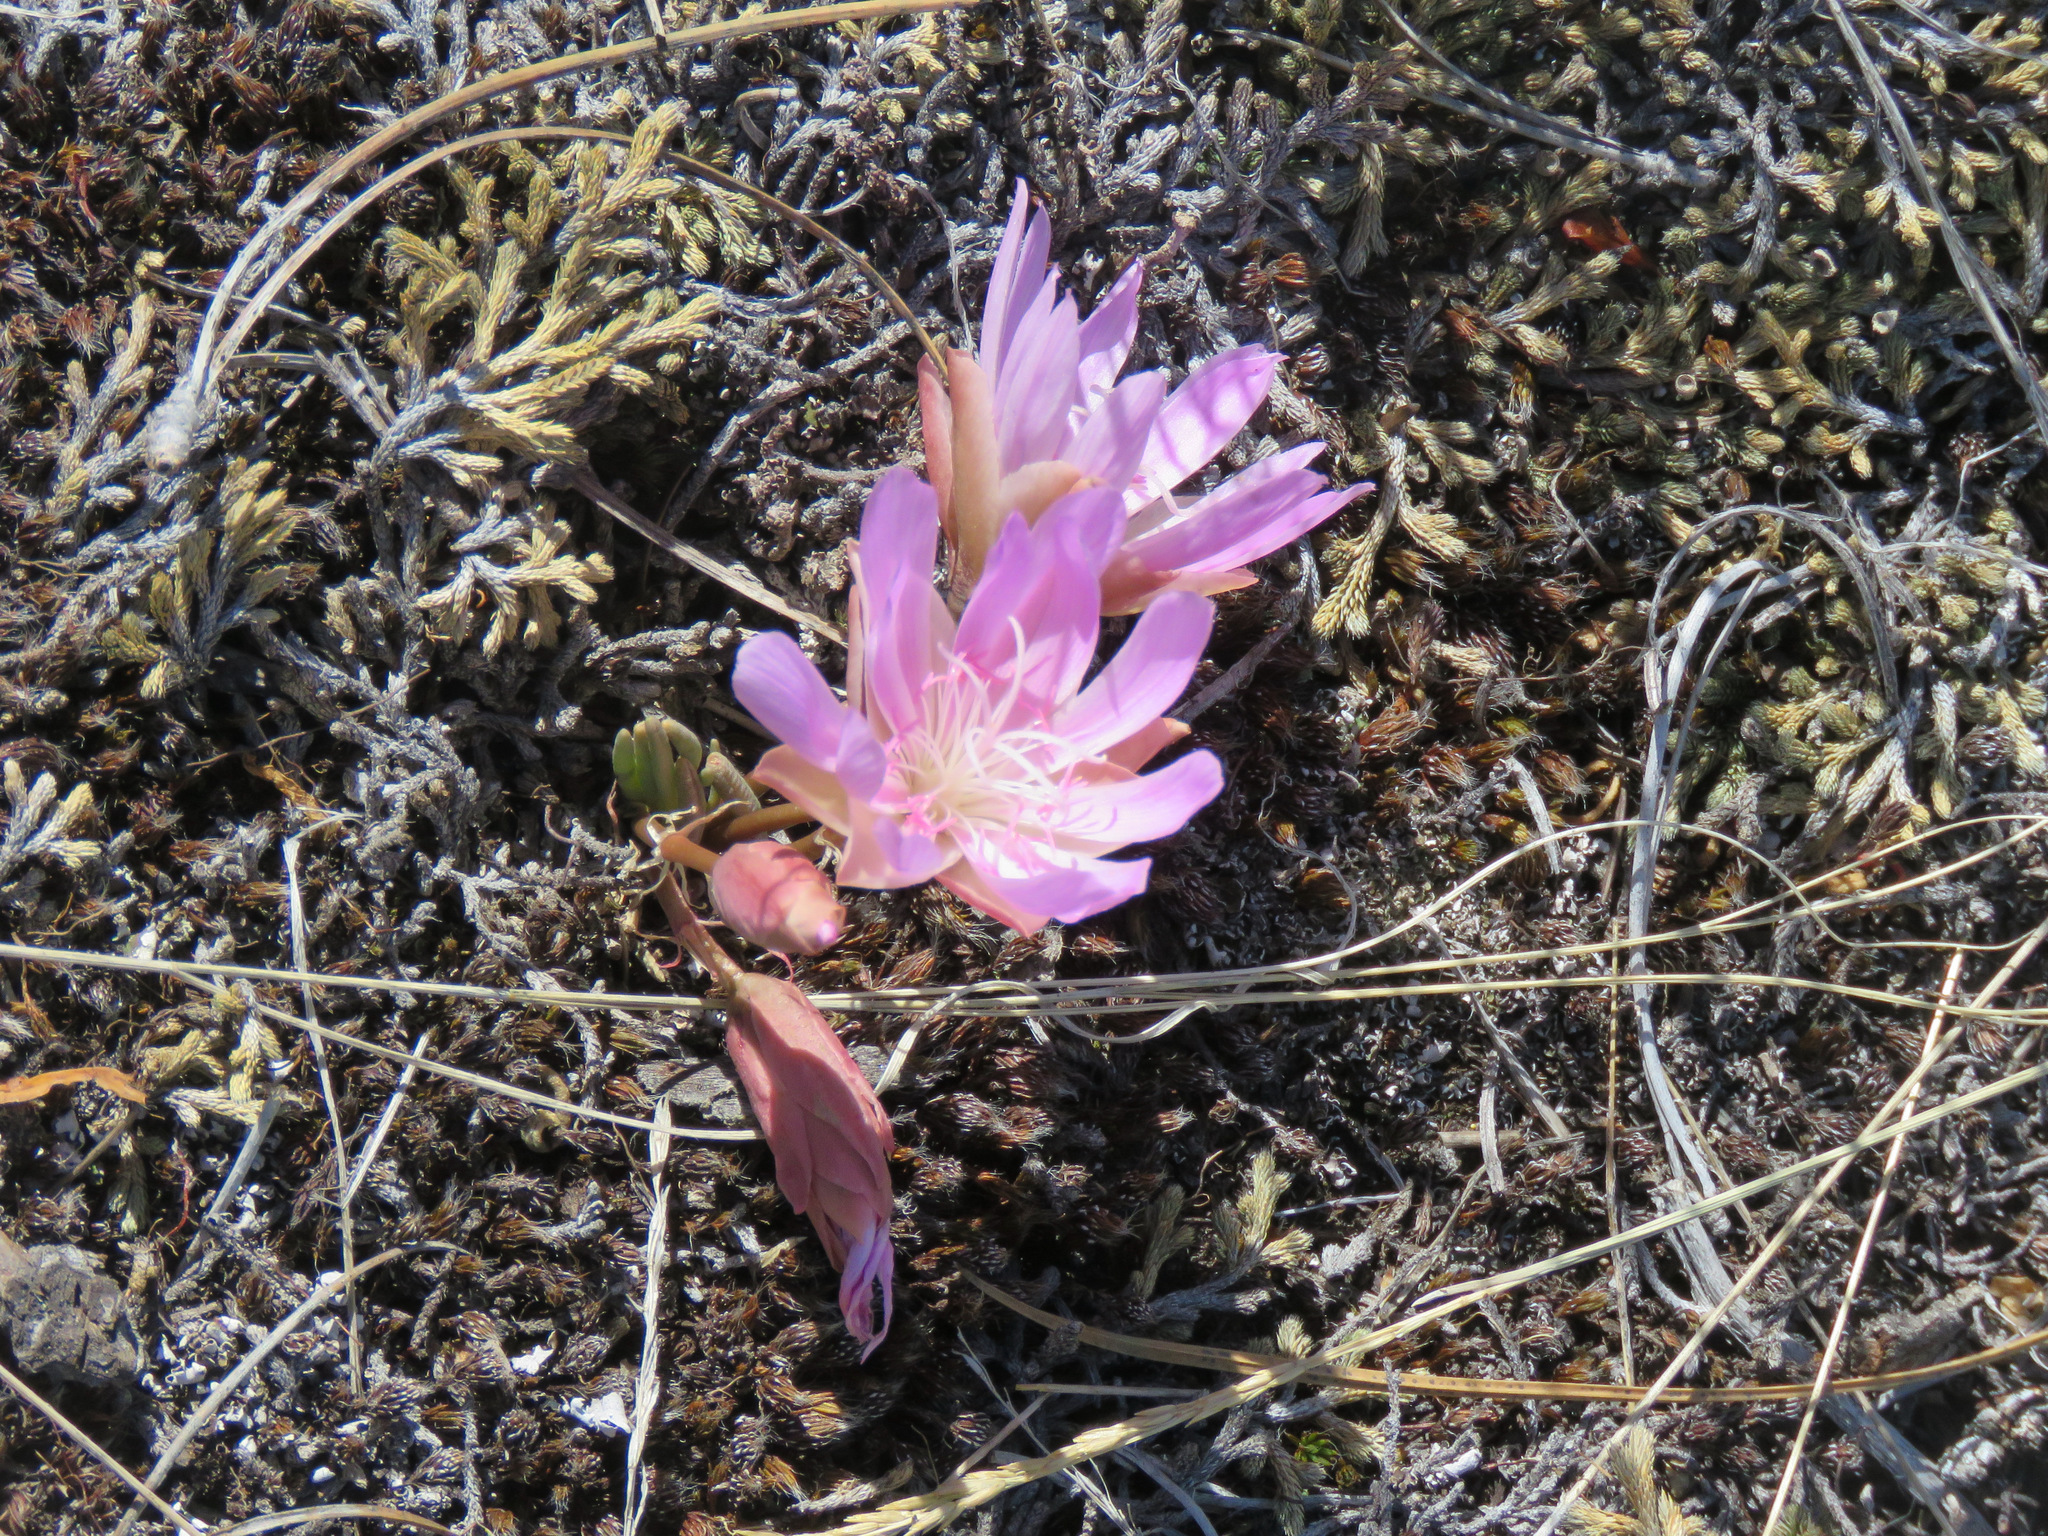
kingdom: Plantae
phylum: Tracheophyta
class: Magnoliopsida
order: Caryophyllales
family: Montiaceae
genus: Lewisia
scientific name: Lewisia rediviva
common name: Bitter-root
